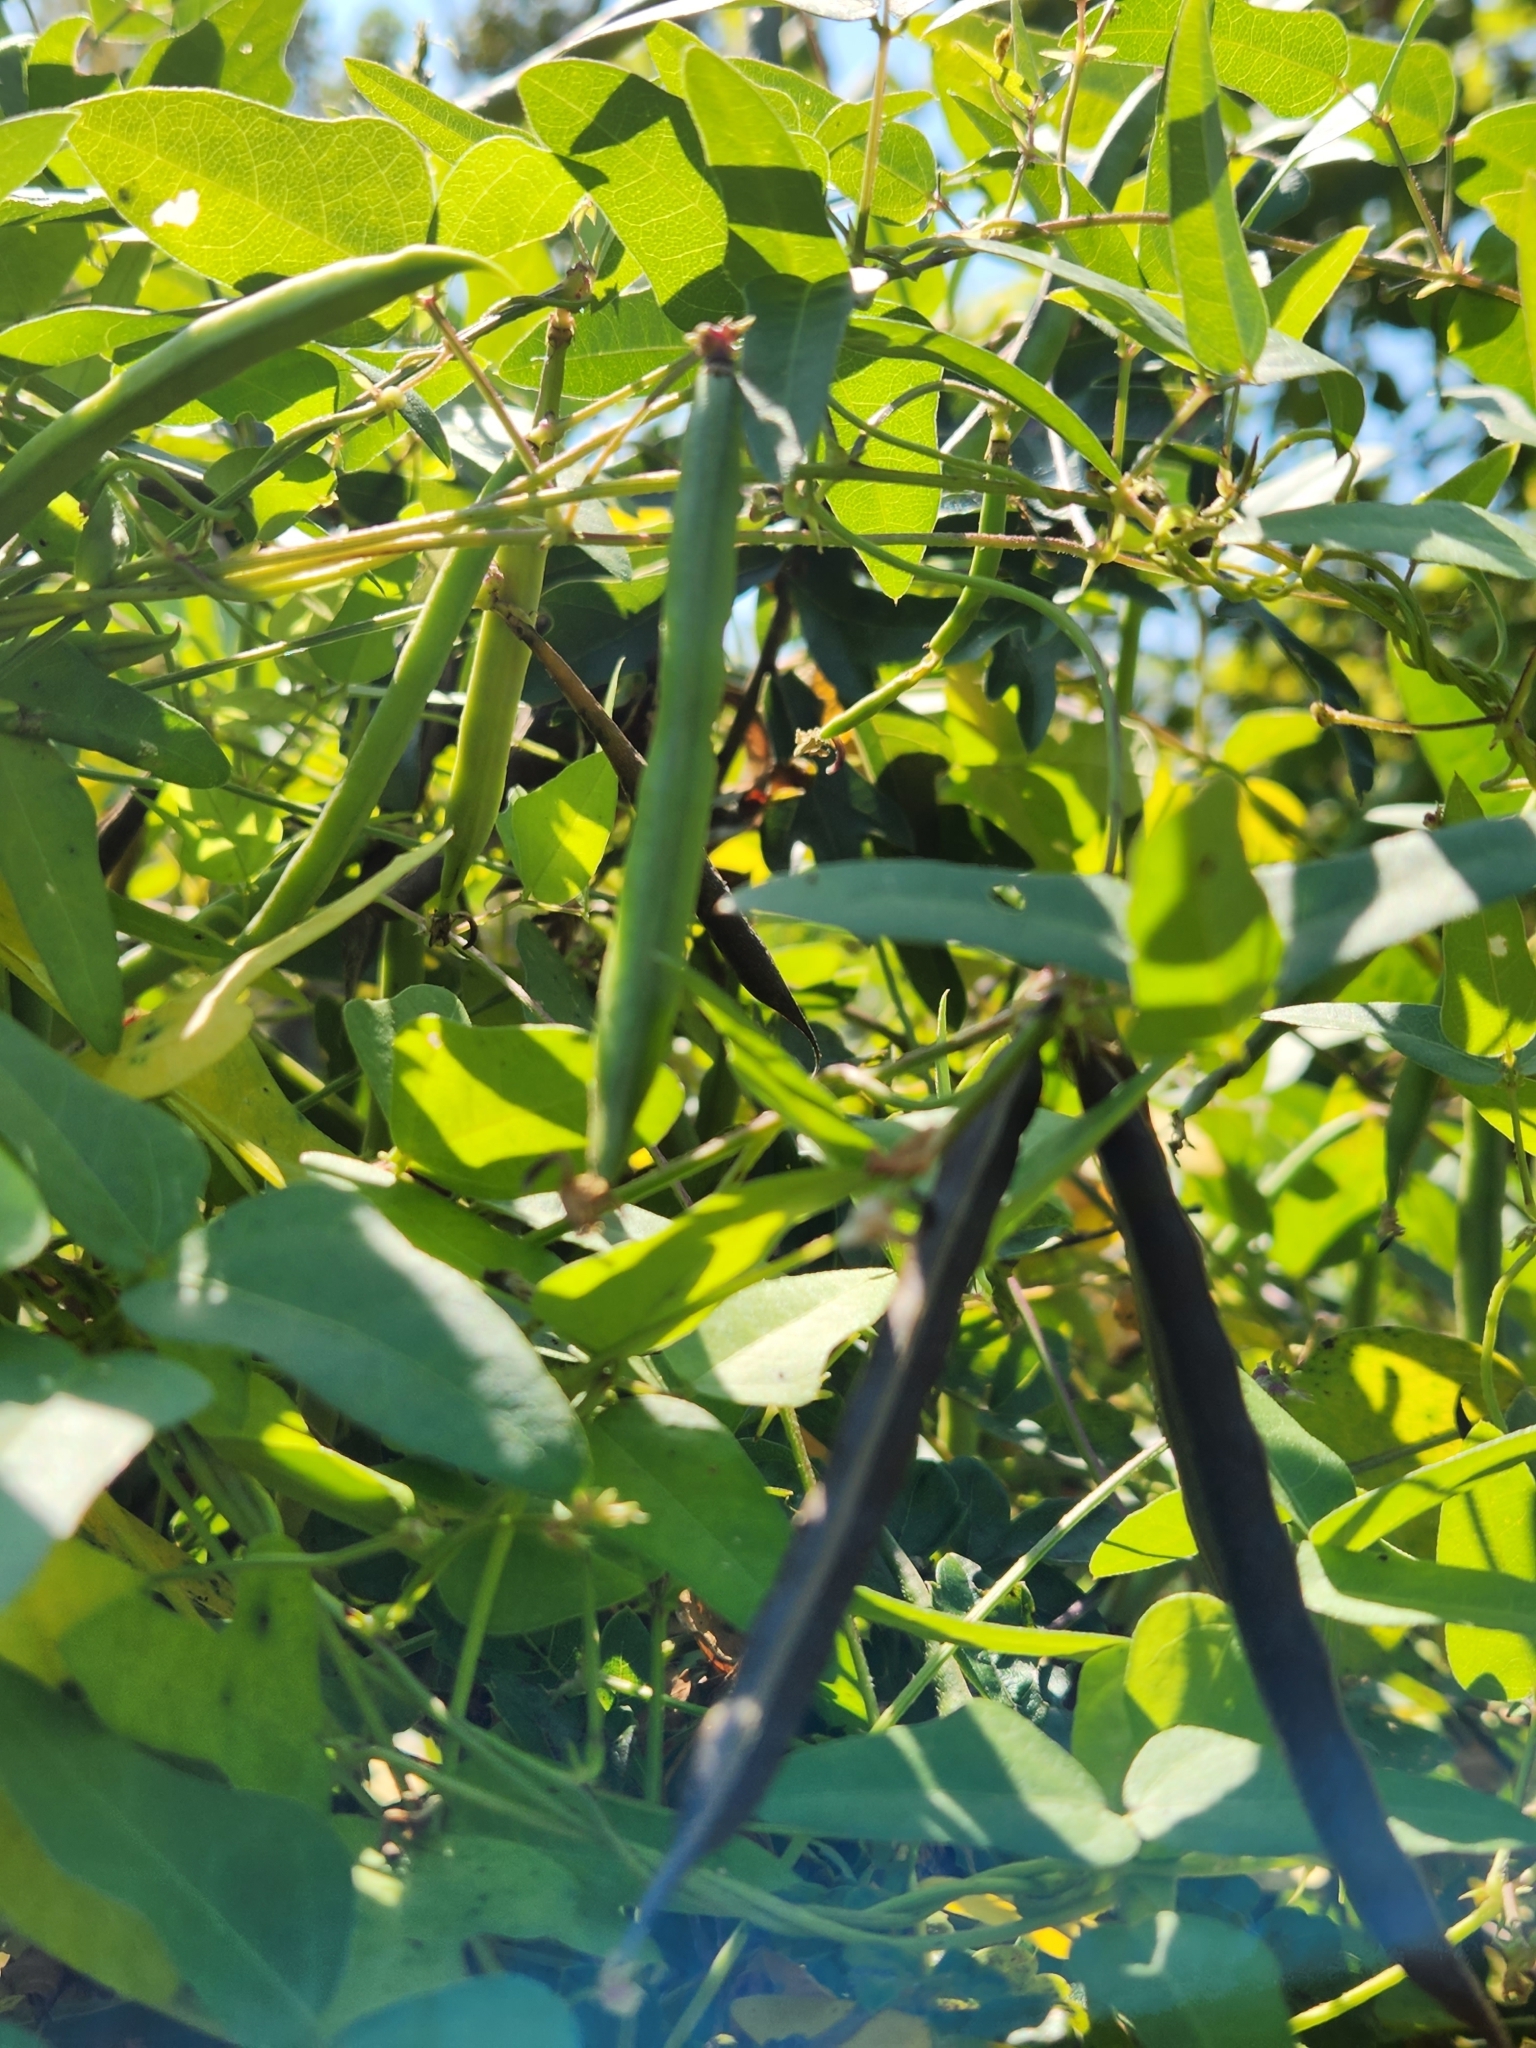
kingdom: Plantae
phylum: Tracheophyta
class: Magnoliopsida
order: Fabales
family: Fabaceae
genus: Strophostyles
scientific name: Strophostyles helvola
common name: Trailing wild bean
